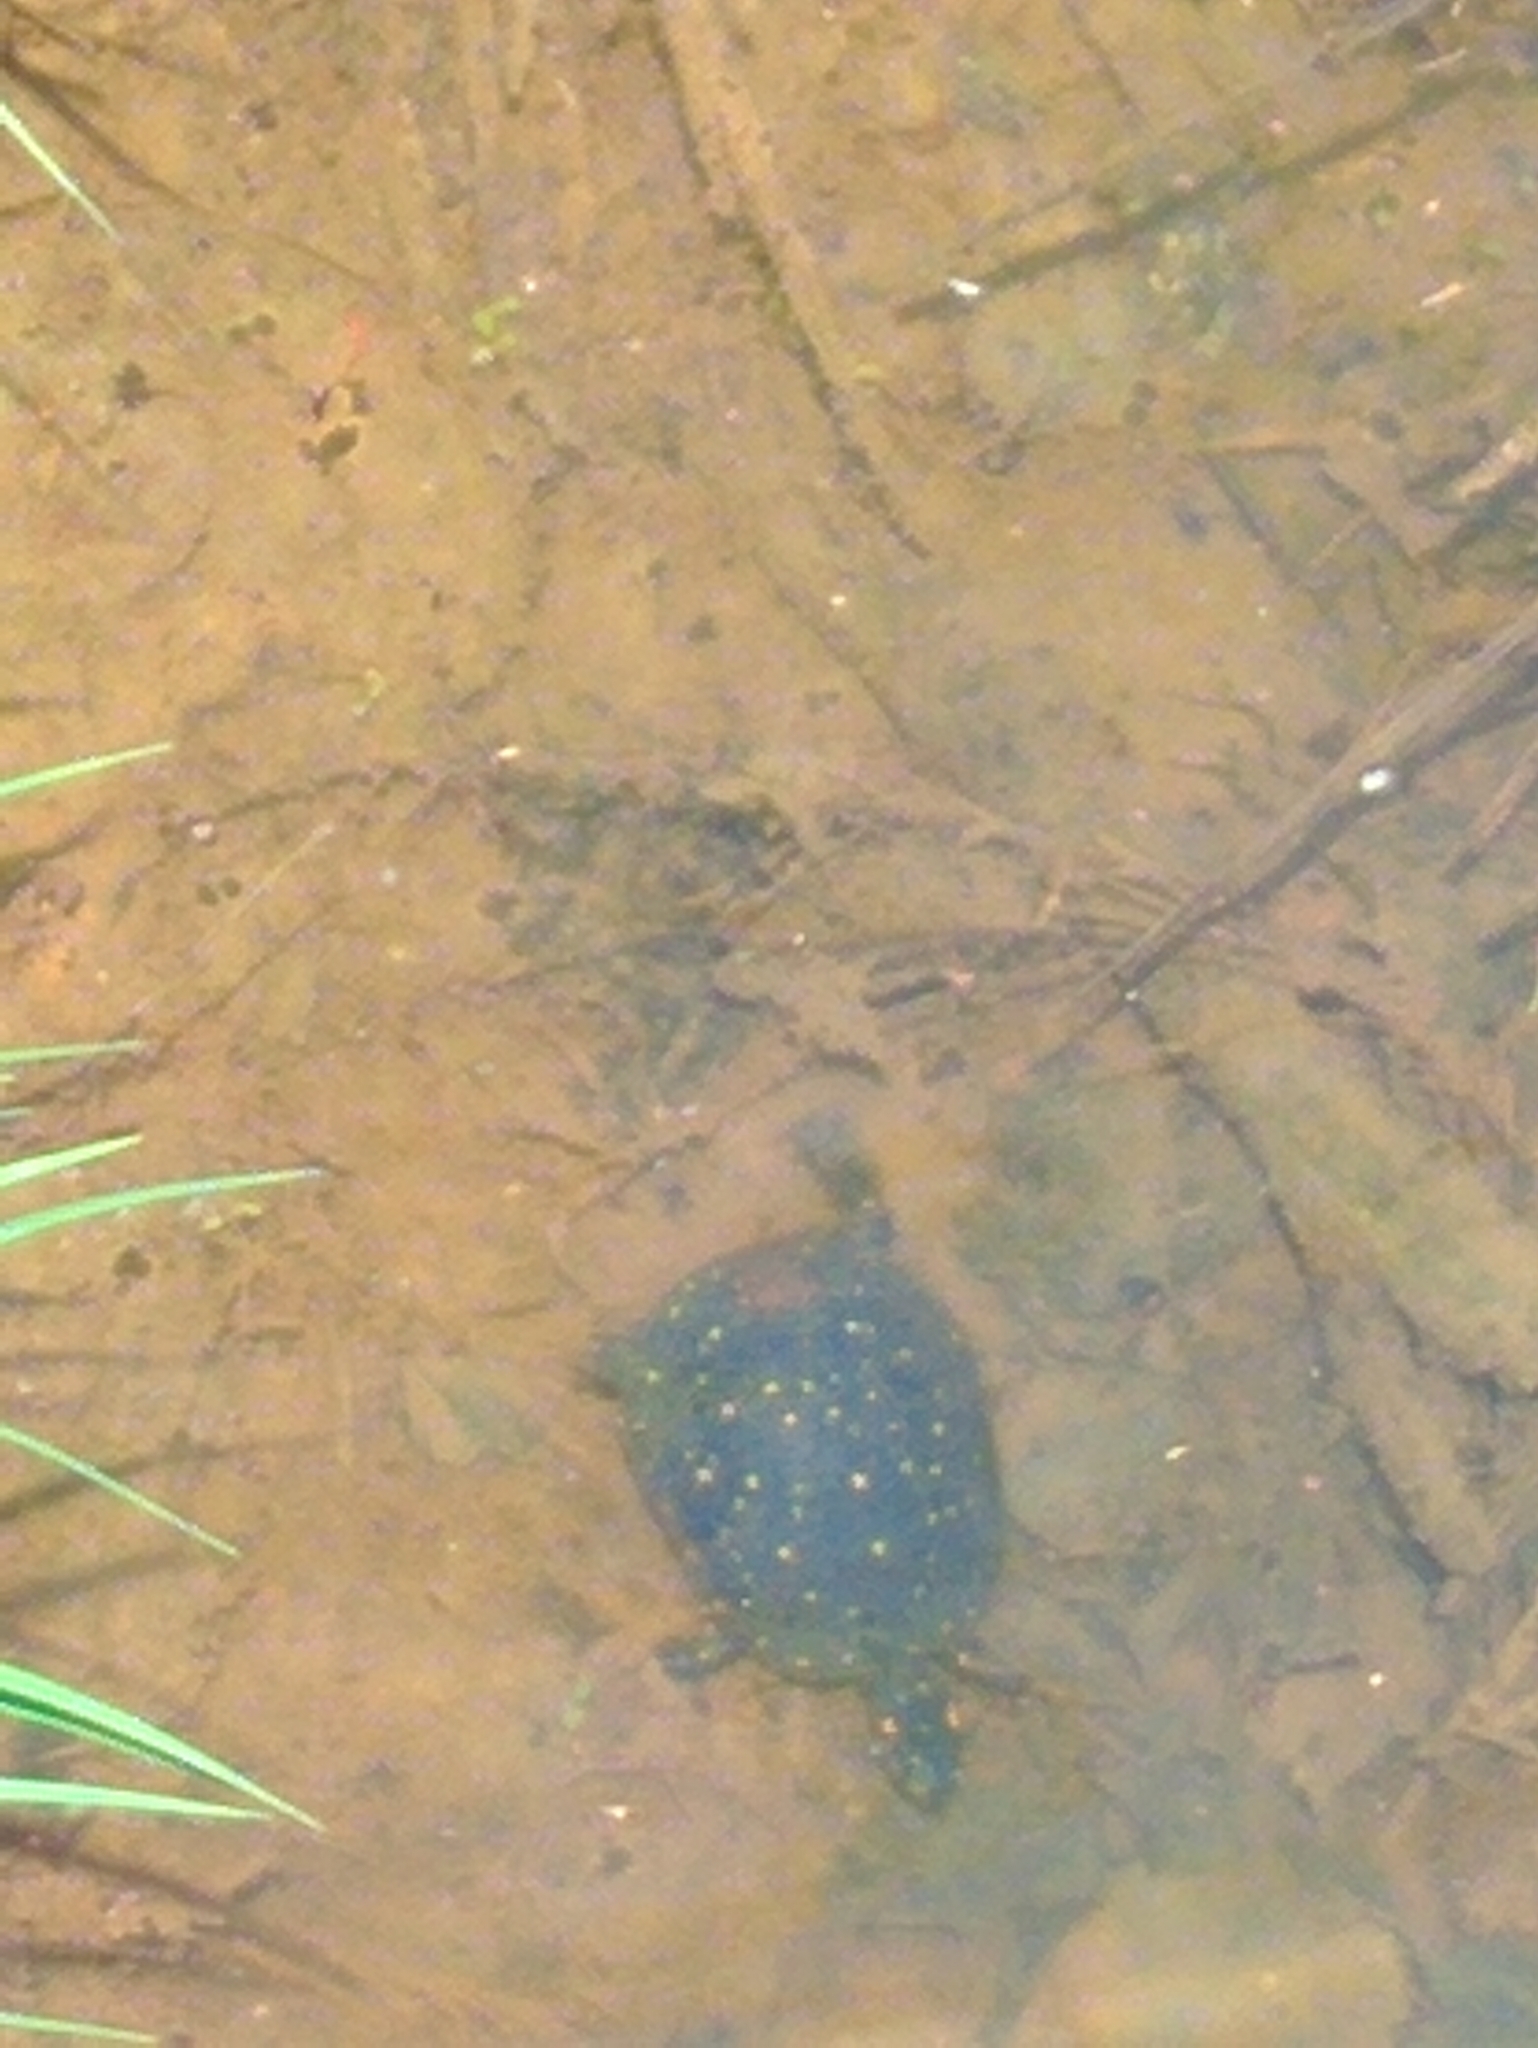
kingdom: Animalia
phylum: Chordata
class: Testudines
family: Emydidae
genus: Clemmys
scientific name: Clemmys guttata
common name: Spotted turtle
